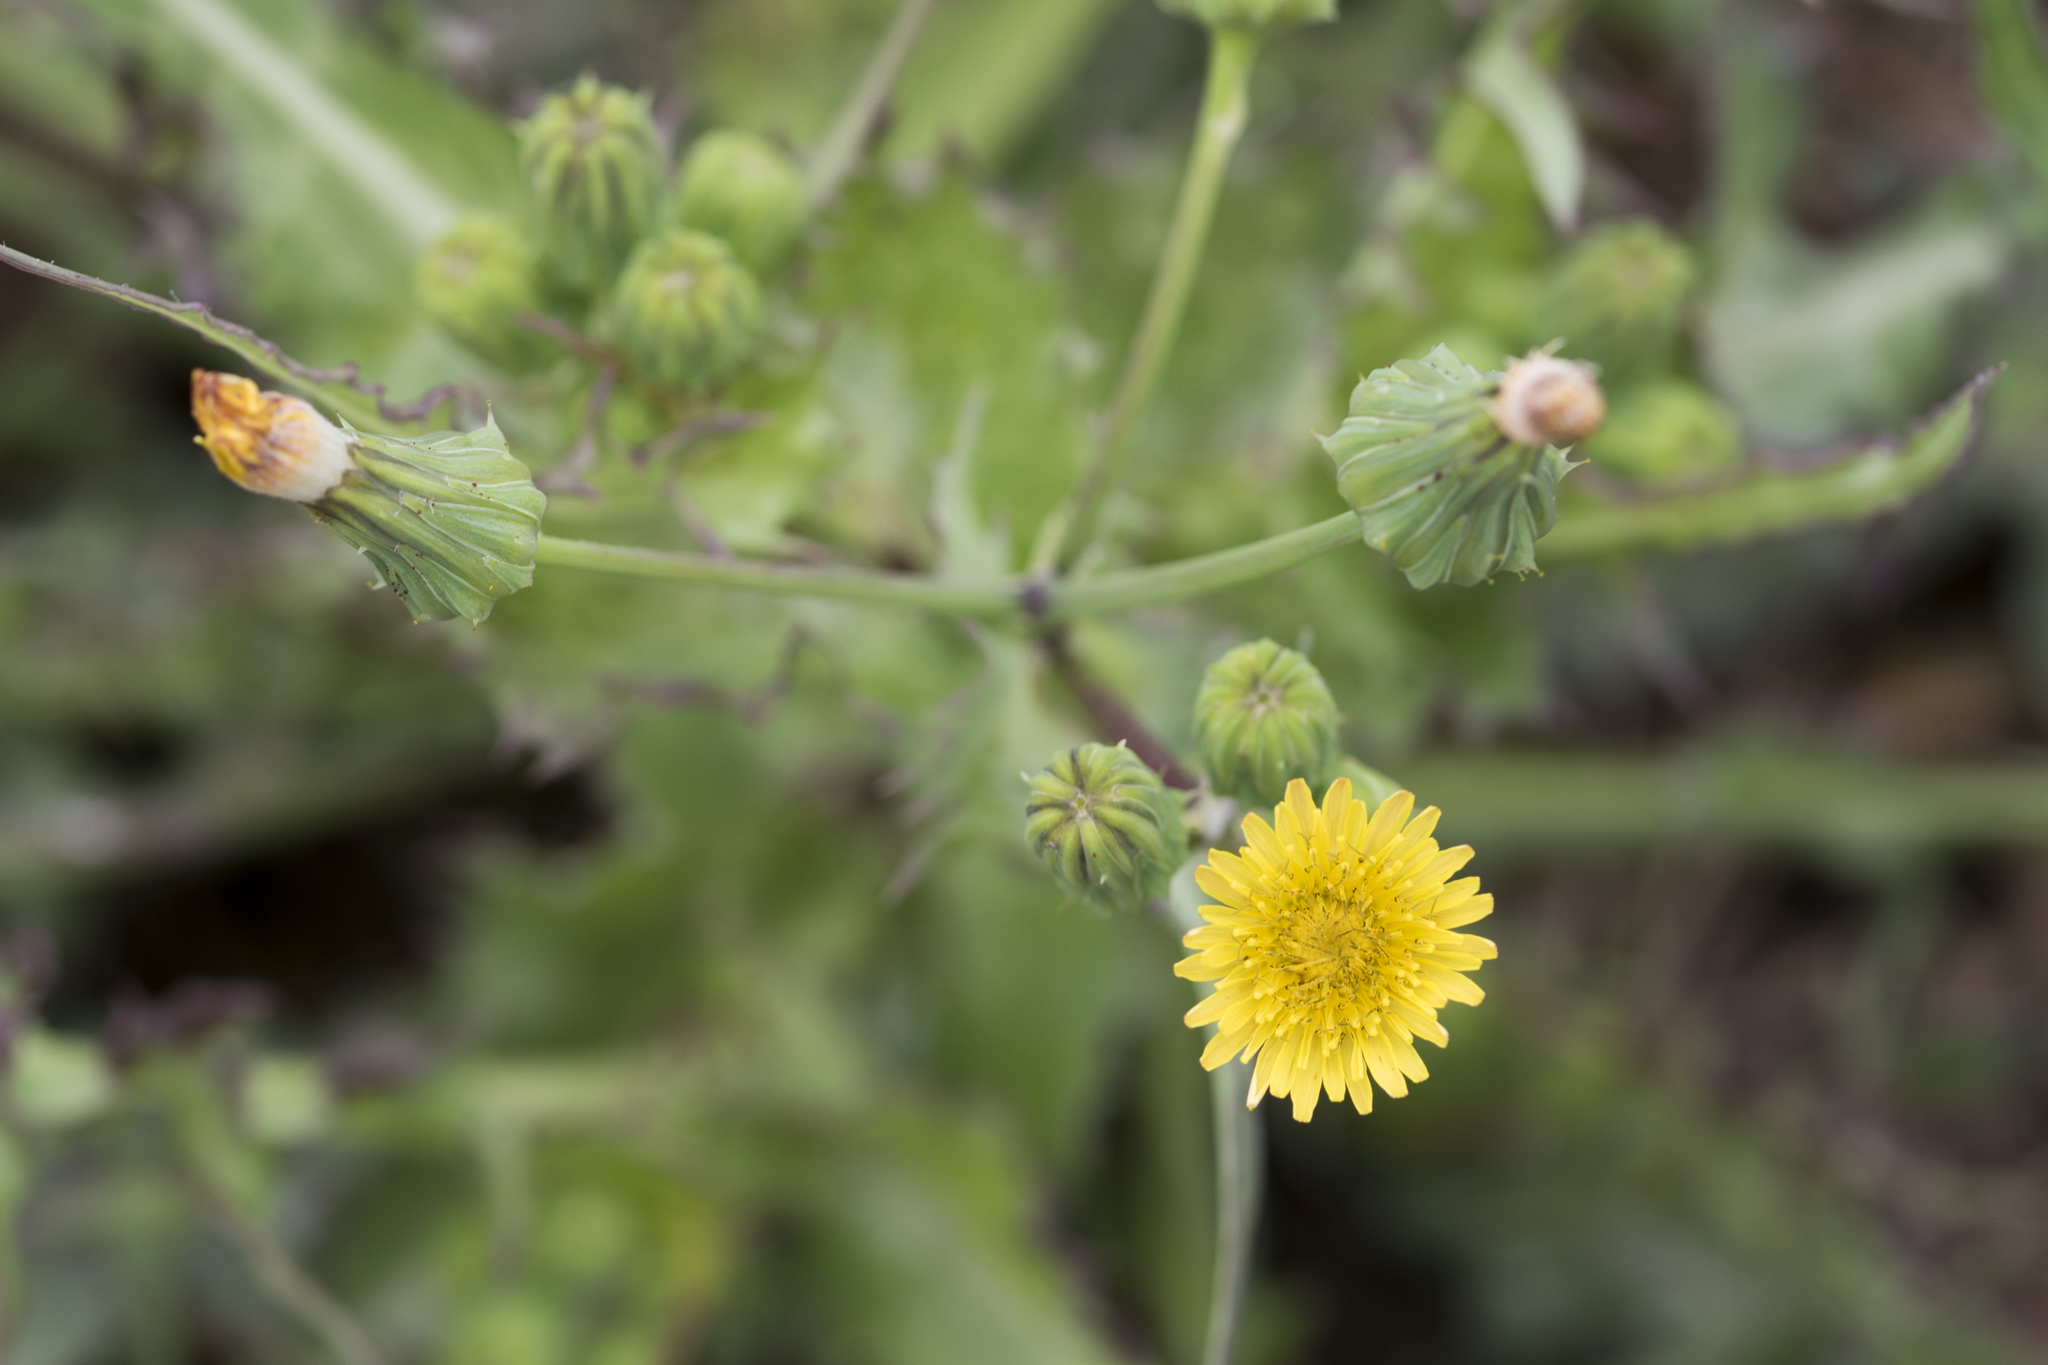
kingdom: Plantae
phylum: Tracheophyta
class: Magnoliopsida
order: Asterales
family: Asteraceae
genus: Sonchus
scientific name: Sonchus oleraceus
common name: Common sowthistle
